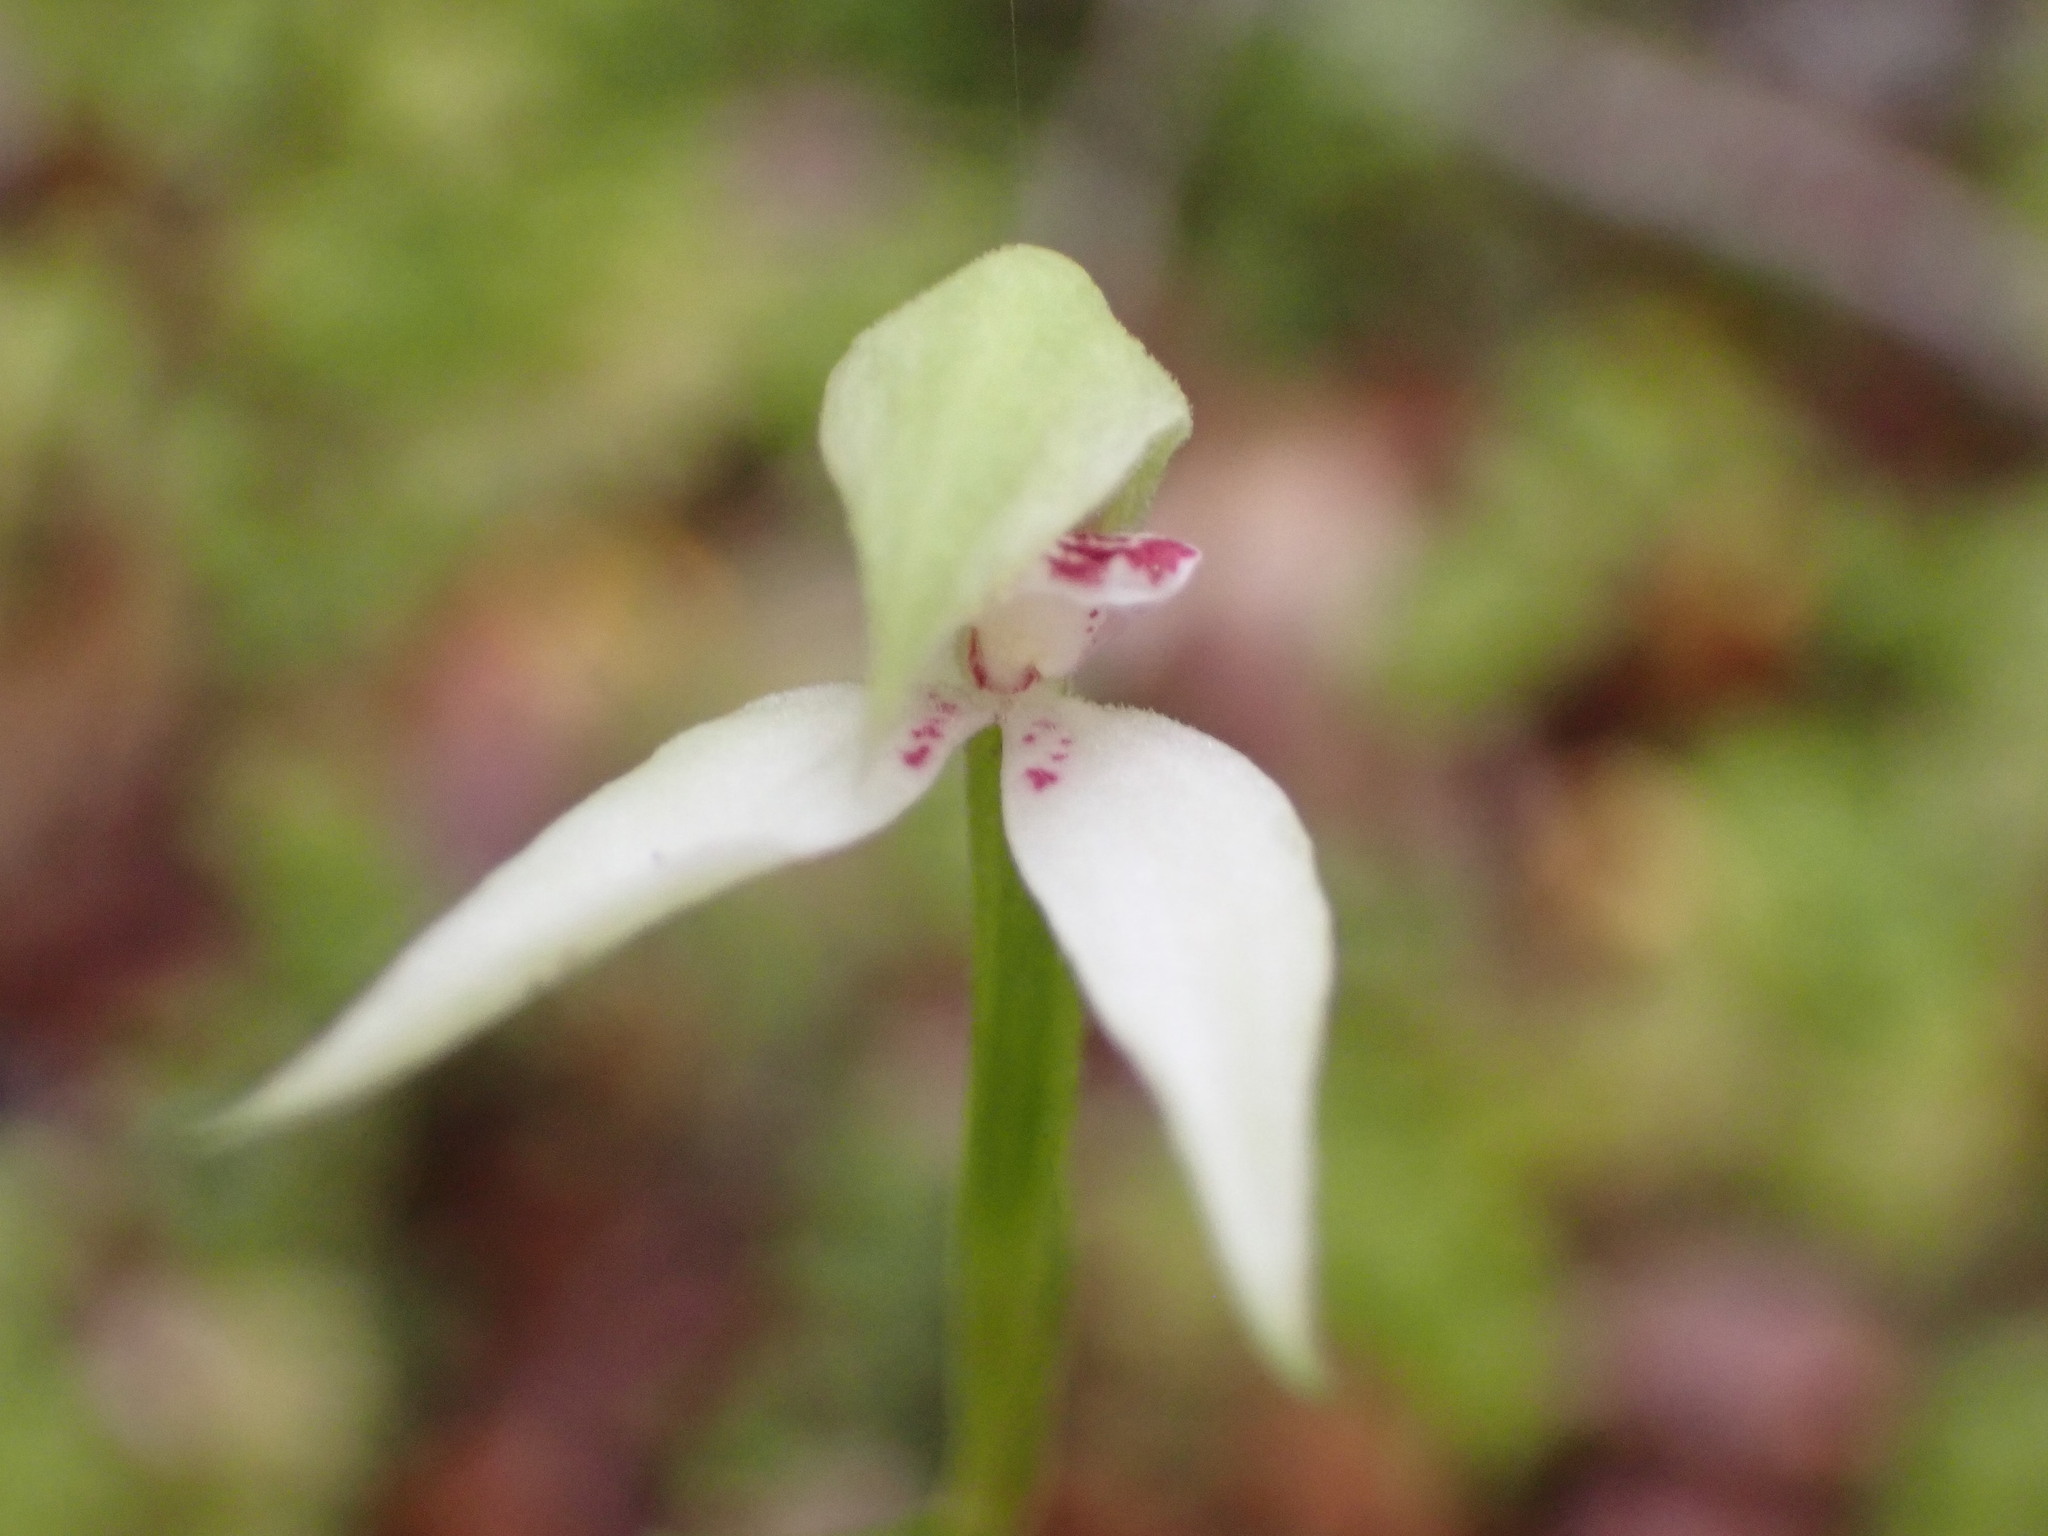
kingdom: Plantae
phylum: Tracheophyta
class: Liliopsida
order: Asparagales
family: Orchidaceae
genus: Adenochilus
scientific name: Adenochilus gracilis
